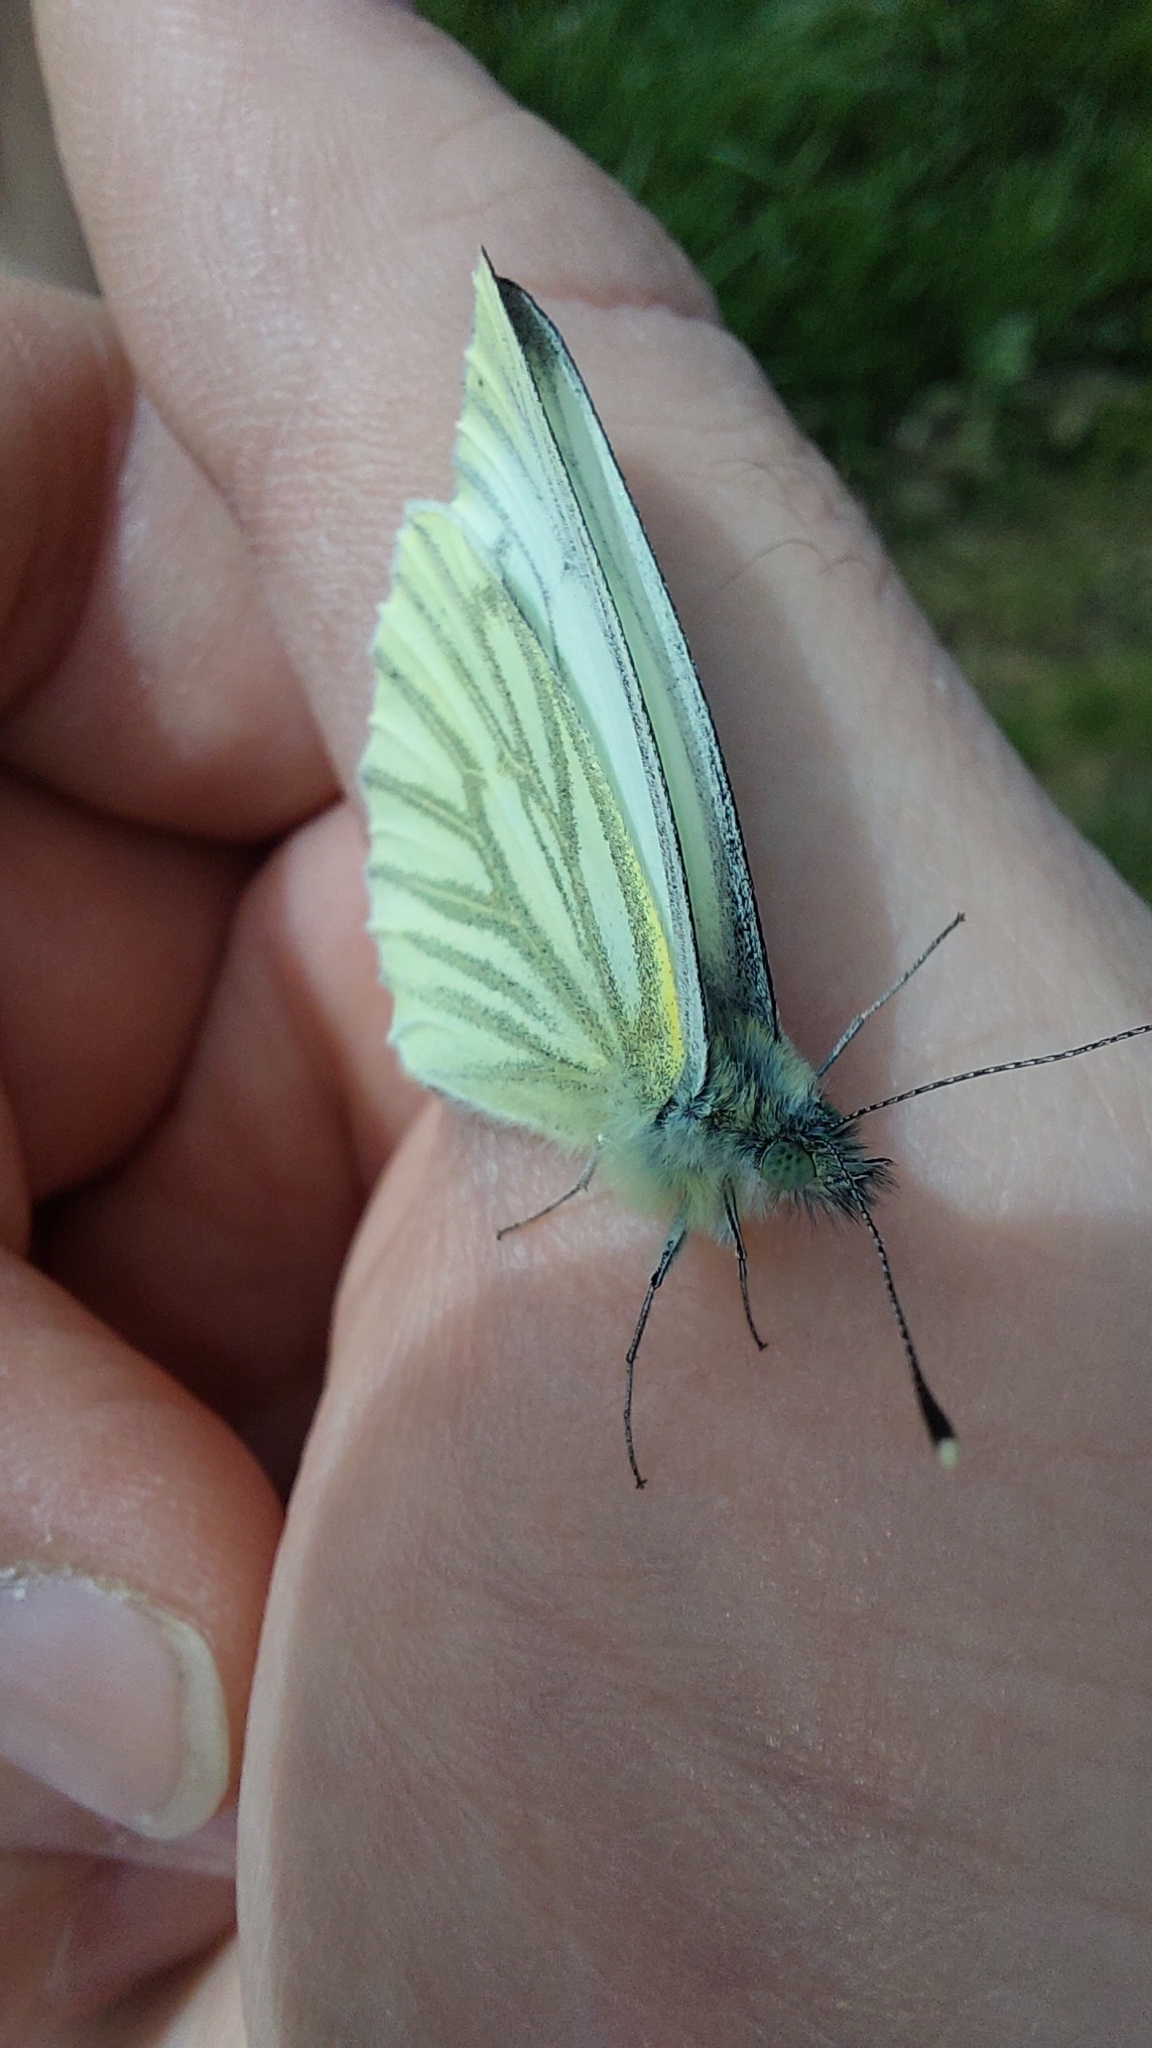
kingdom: Animalia
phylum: Arthropoda
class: Insecta
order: Lepidoptera
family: Pieridae
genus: Pieris
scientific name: Pieris napi
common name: Green-veined white
